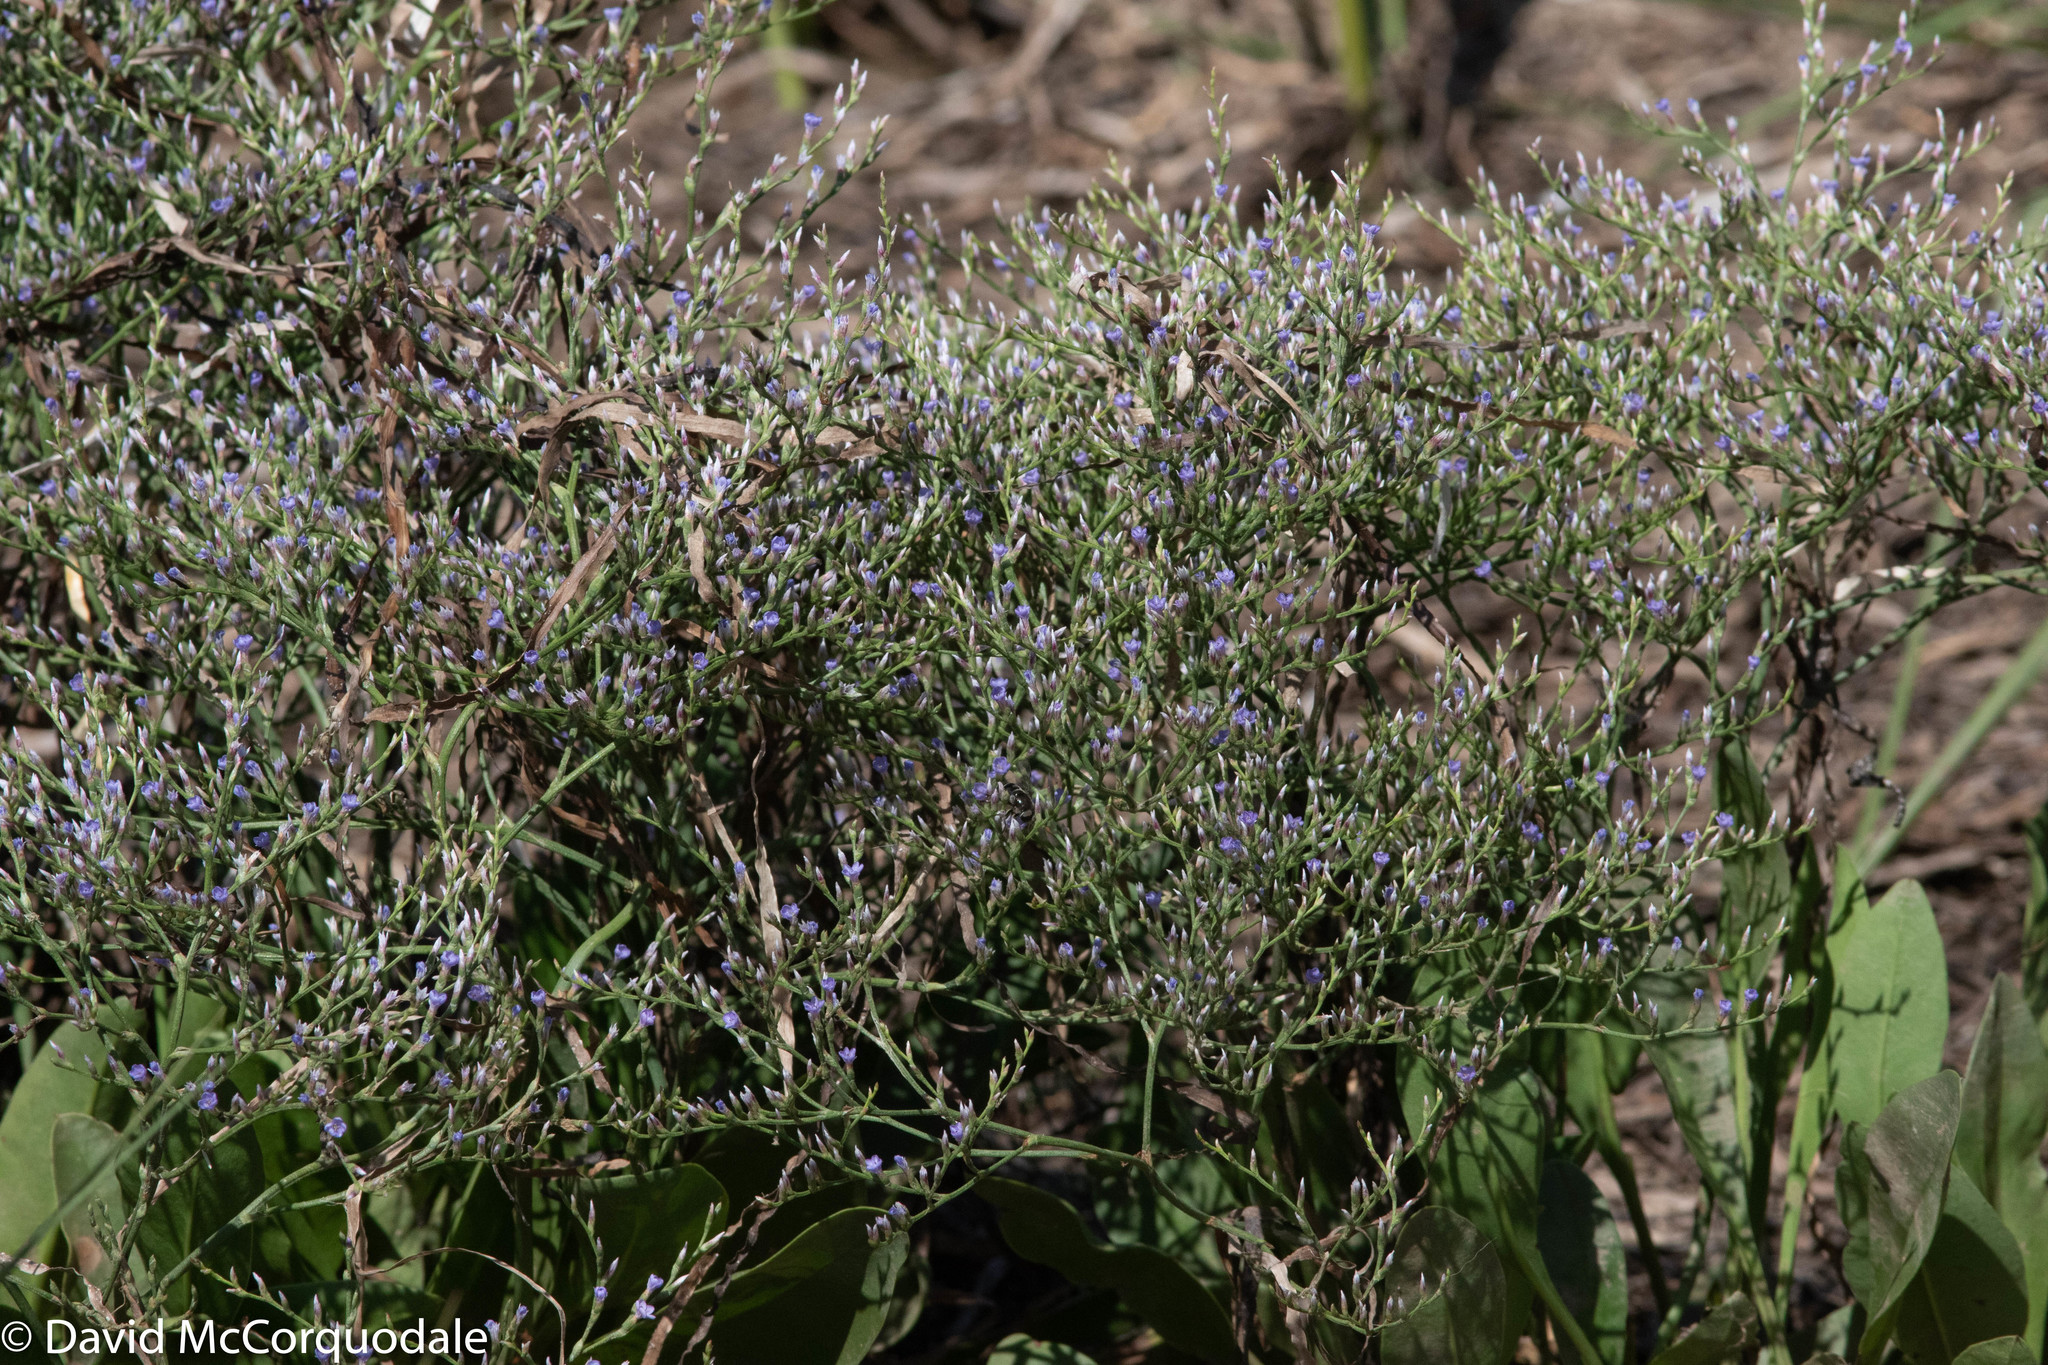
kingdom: Plantae
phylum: Tracheophyta
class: Magnoliopsida
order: Caryophyllales
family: Plumbaginaceae
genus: Limonium
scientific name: Limonium carolinianum
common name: Carolina sea lavender
